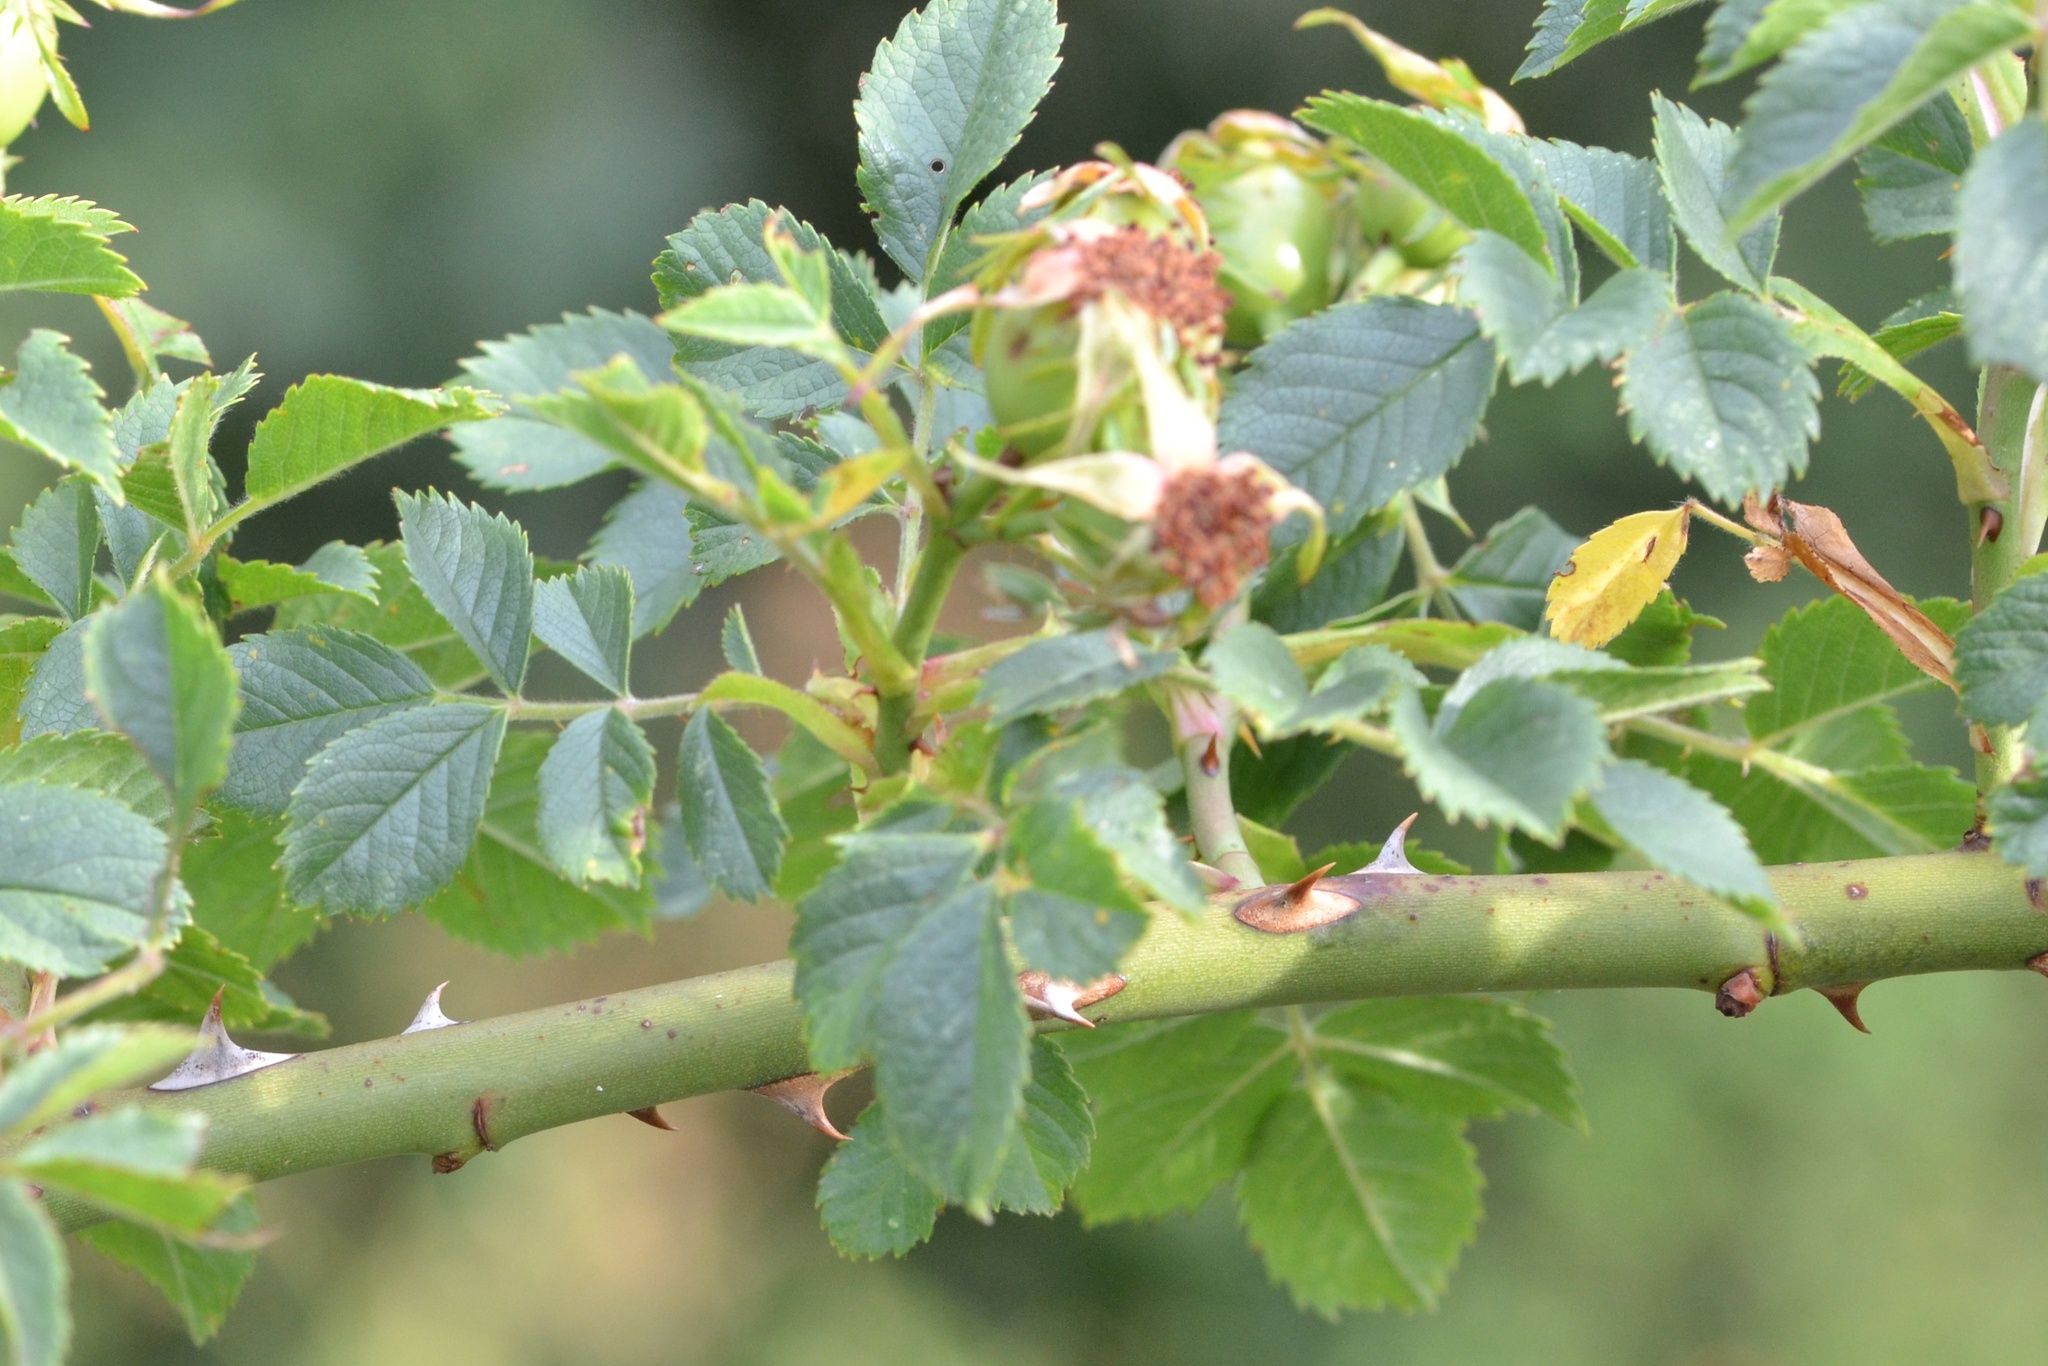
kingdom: Plantae
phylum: Tracheophyta
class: Magnoliopsida
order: Rosales
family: Rosaceae
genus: Rosa
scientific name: Rosa corymbifera
